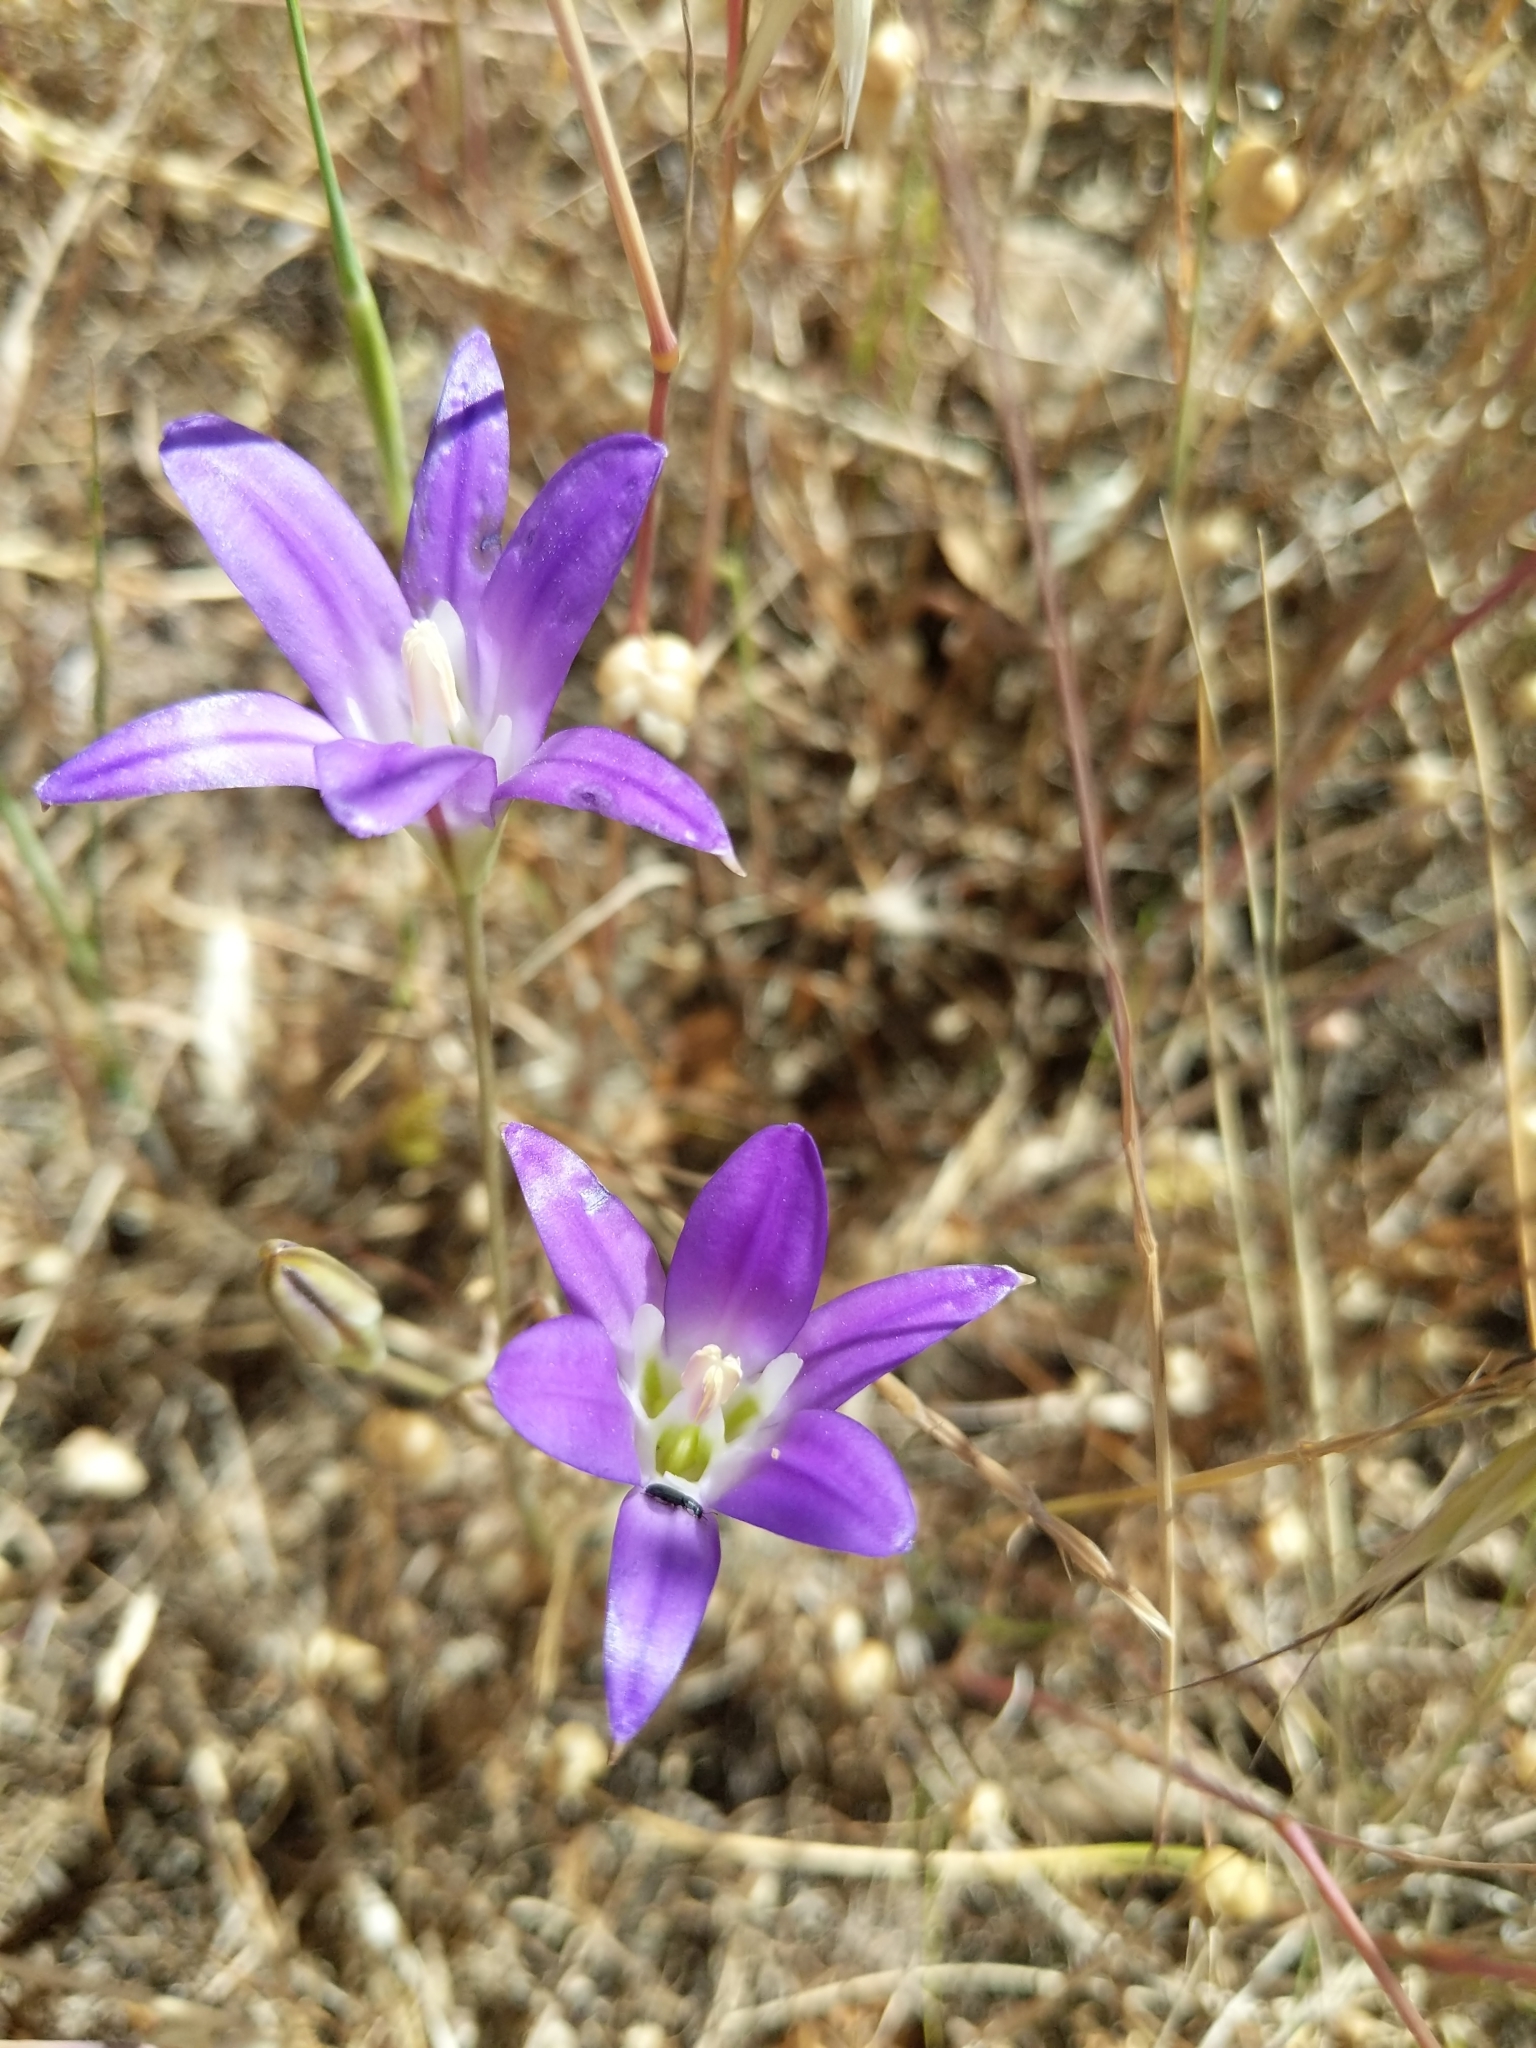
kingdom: Plantae
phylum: Tracheophyta
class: Liliopsida
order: Asparagales
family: Asparagaceae
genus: Brodiaea
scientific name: Brodiaea elegans
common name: Elegant cluster-lily
